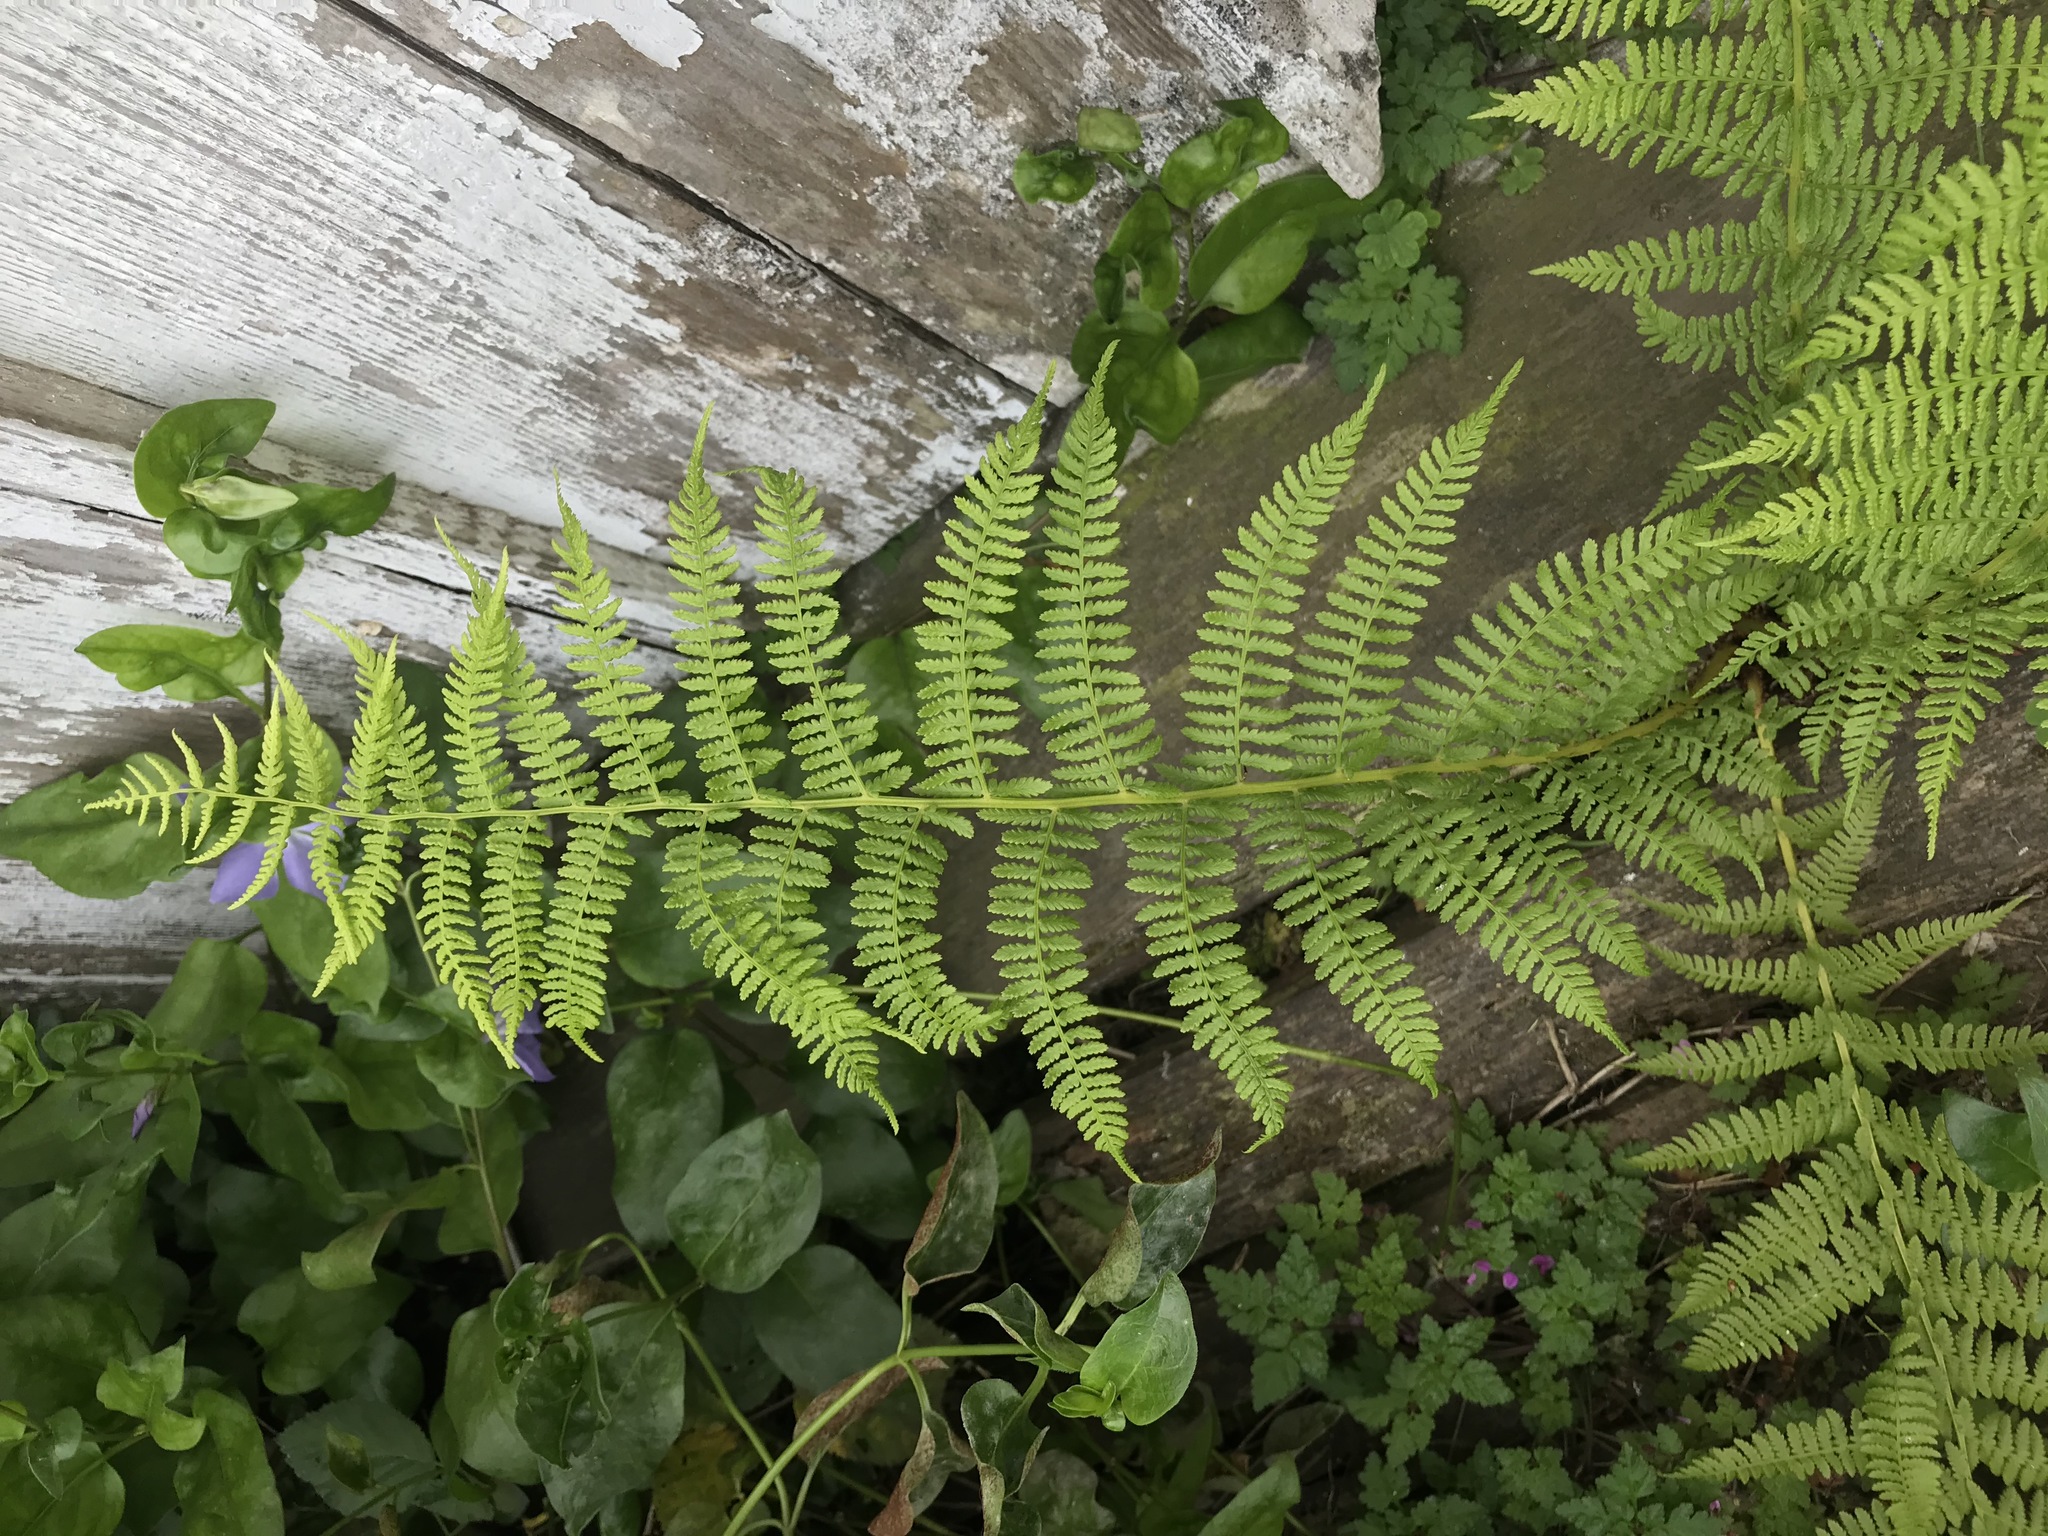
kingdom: Plantae
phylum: Tracheophyta
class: Polypodiopsida
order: Polypodiales
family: Athyriaceae
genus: Athyrium
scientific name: Athyrium filix-femina
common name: Lady fern
